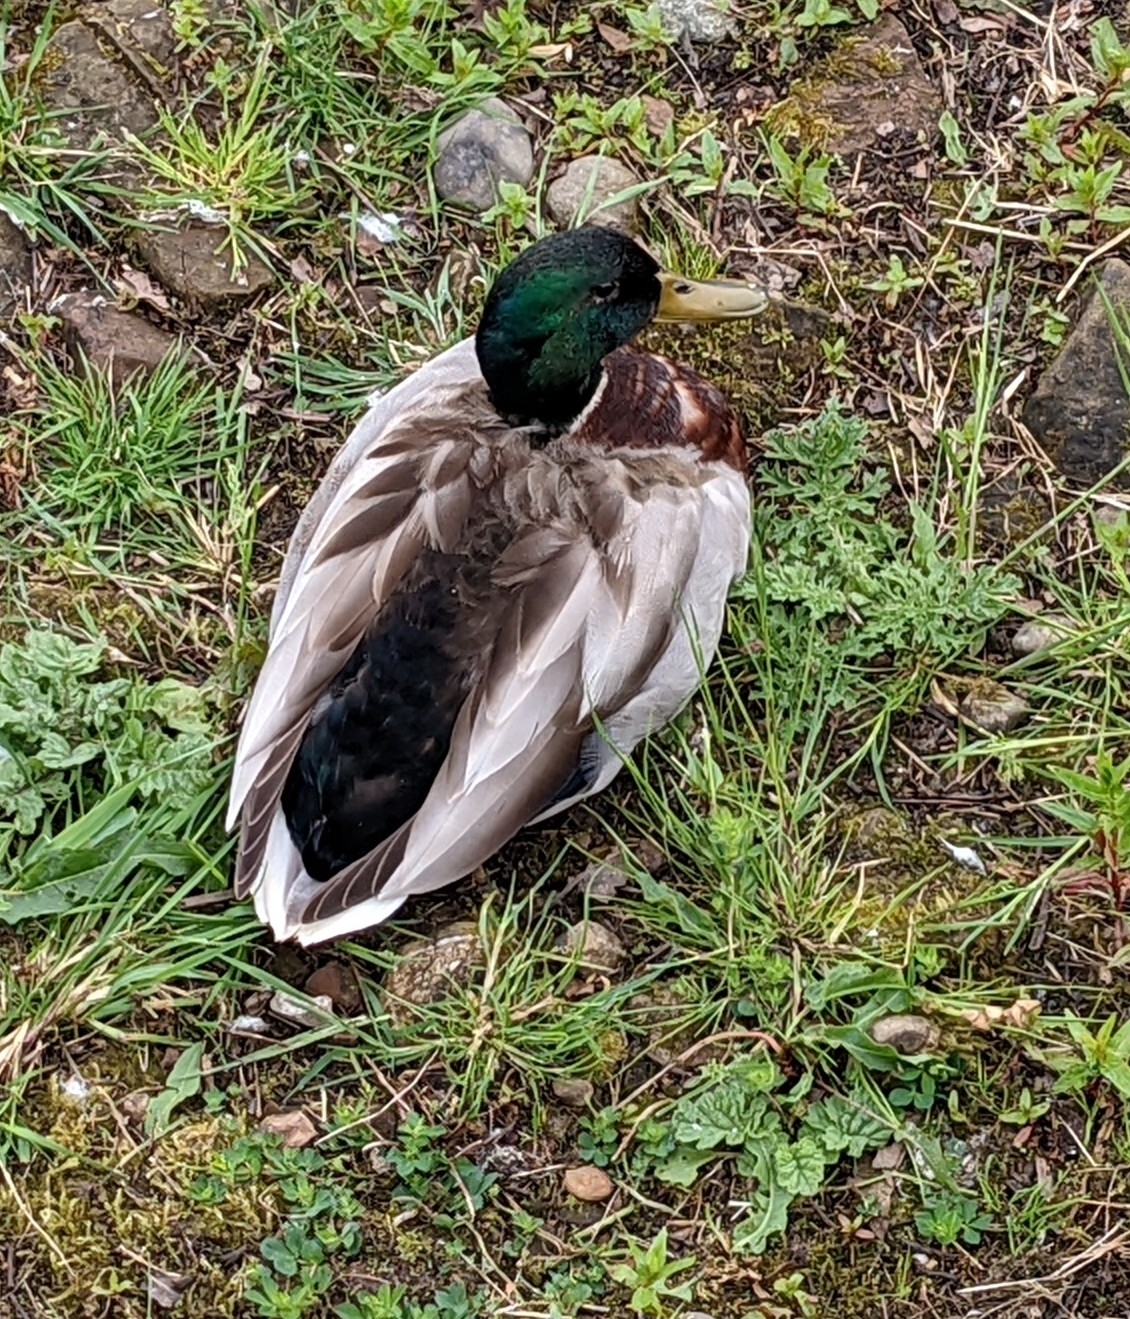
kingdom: Animalia
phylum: Chordata
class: Aves
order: Anseriformes
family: Anatidae
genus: Anas
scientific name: Anas platyrhynchos
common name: Mallard
